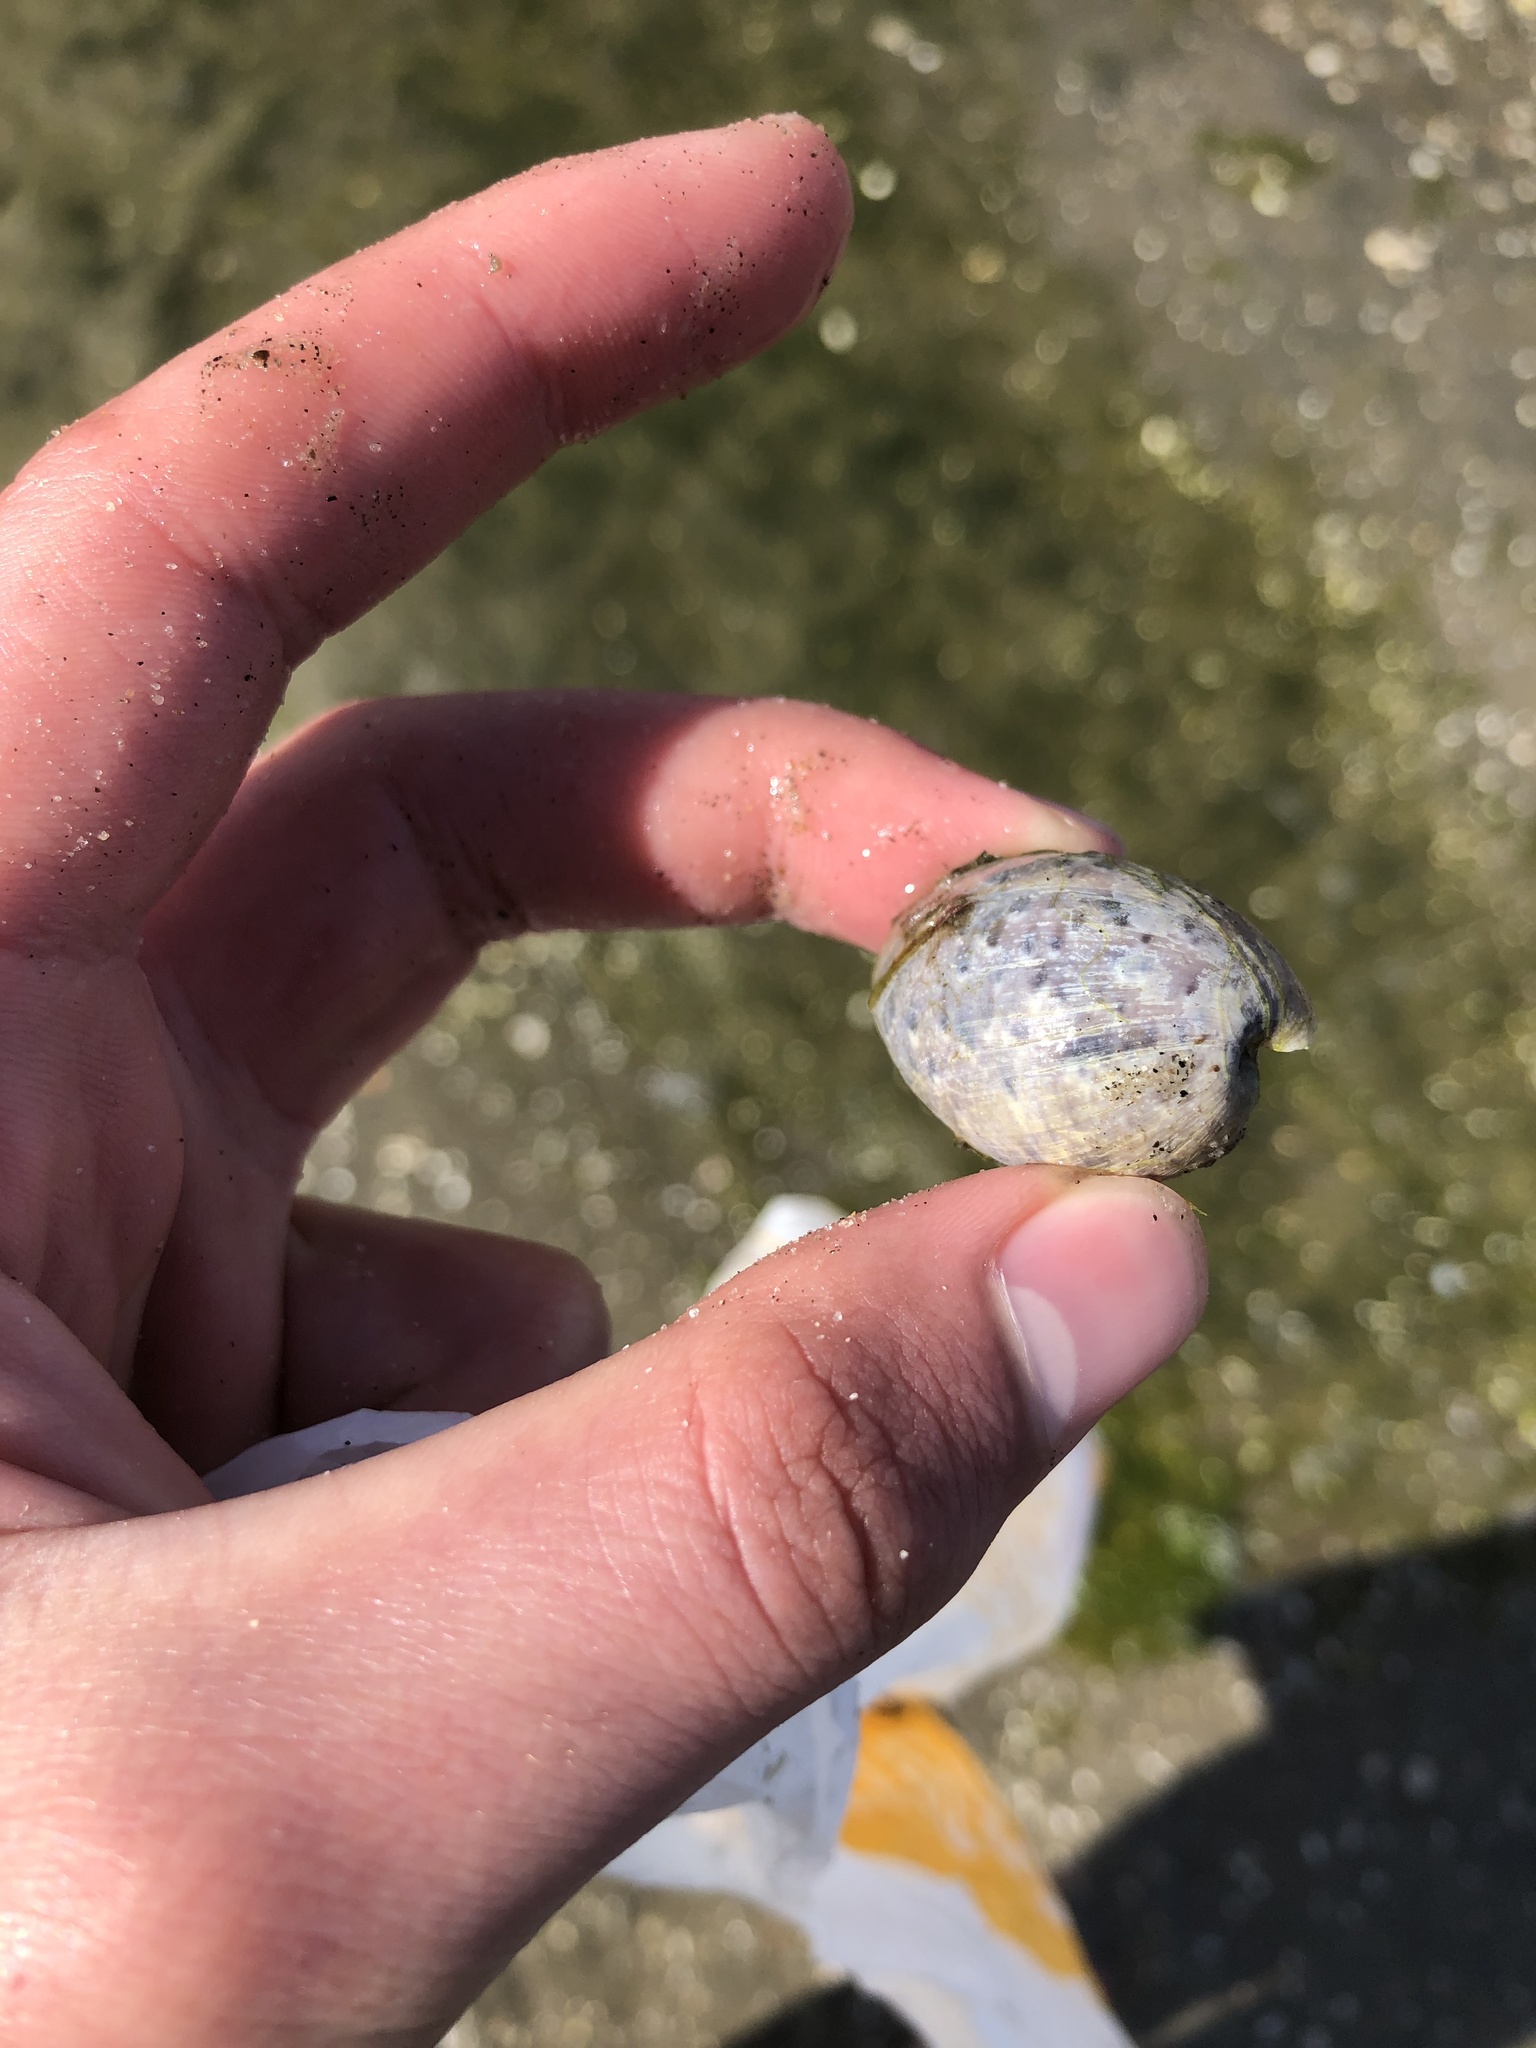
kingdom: Animalia
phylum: Mollusca
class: Gastropoda
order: Cephalaspidea
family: Bullidae
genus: Bulla
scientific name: Bulla gouldiana
